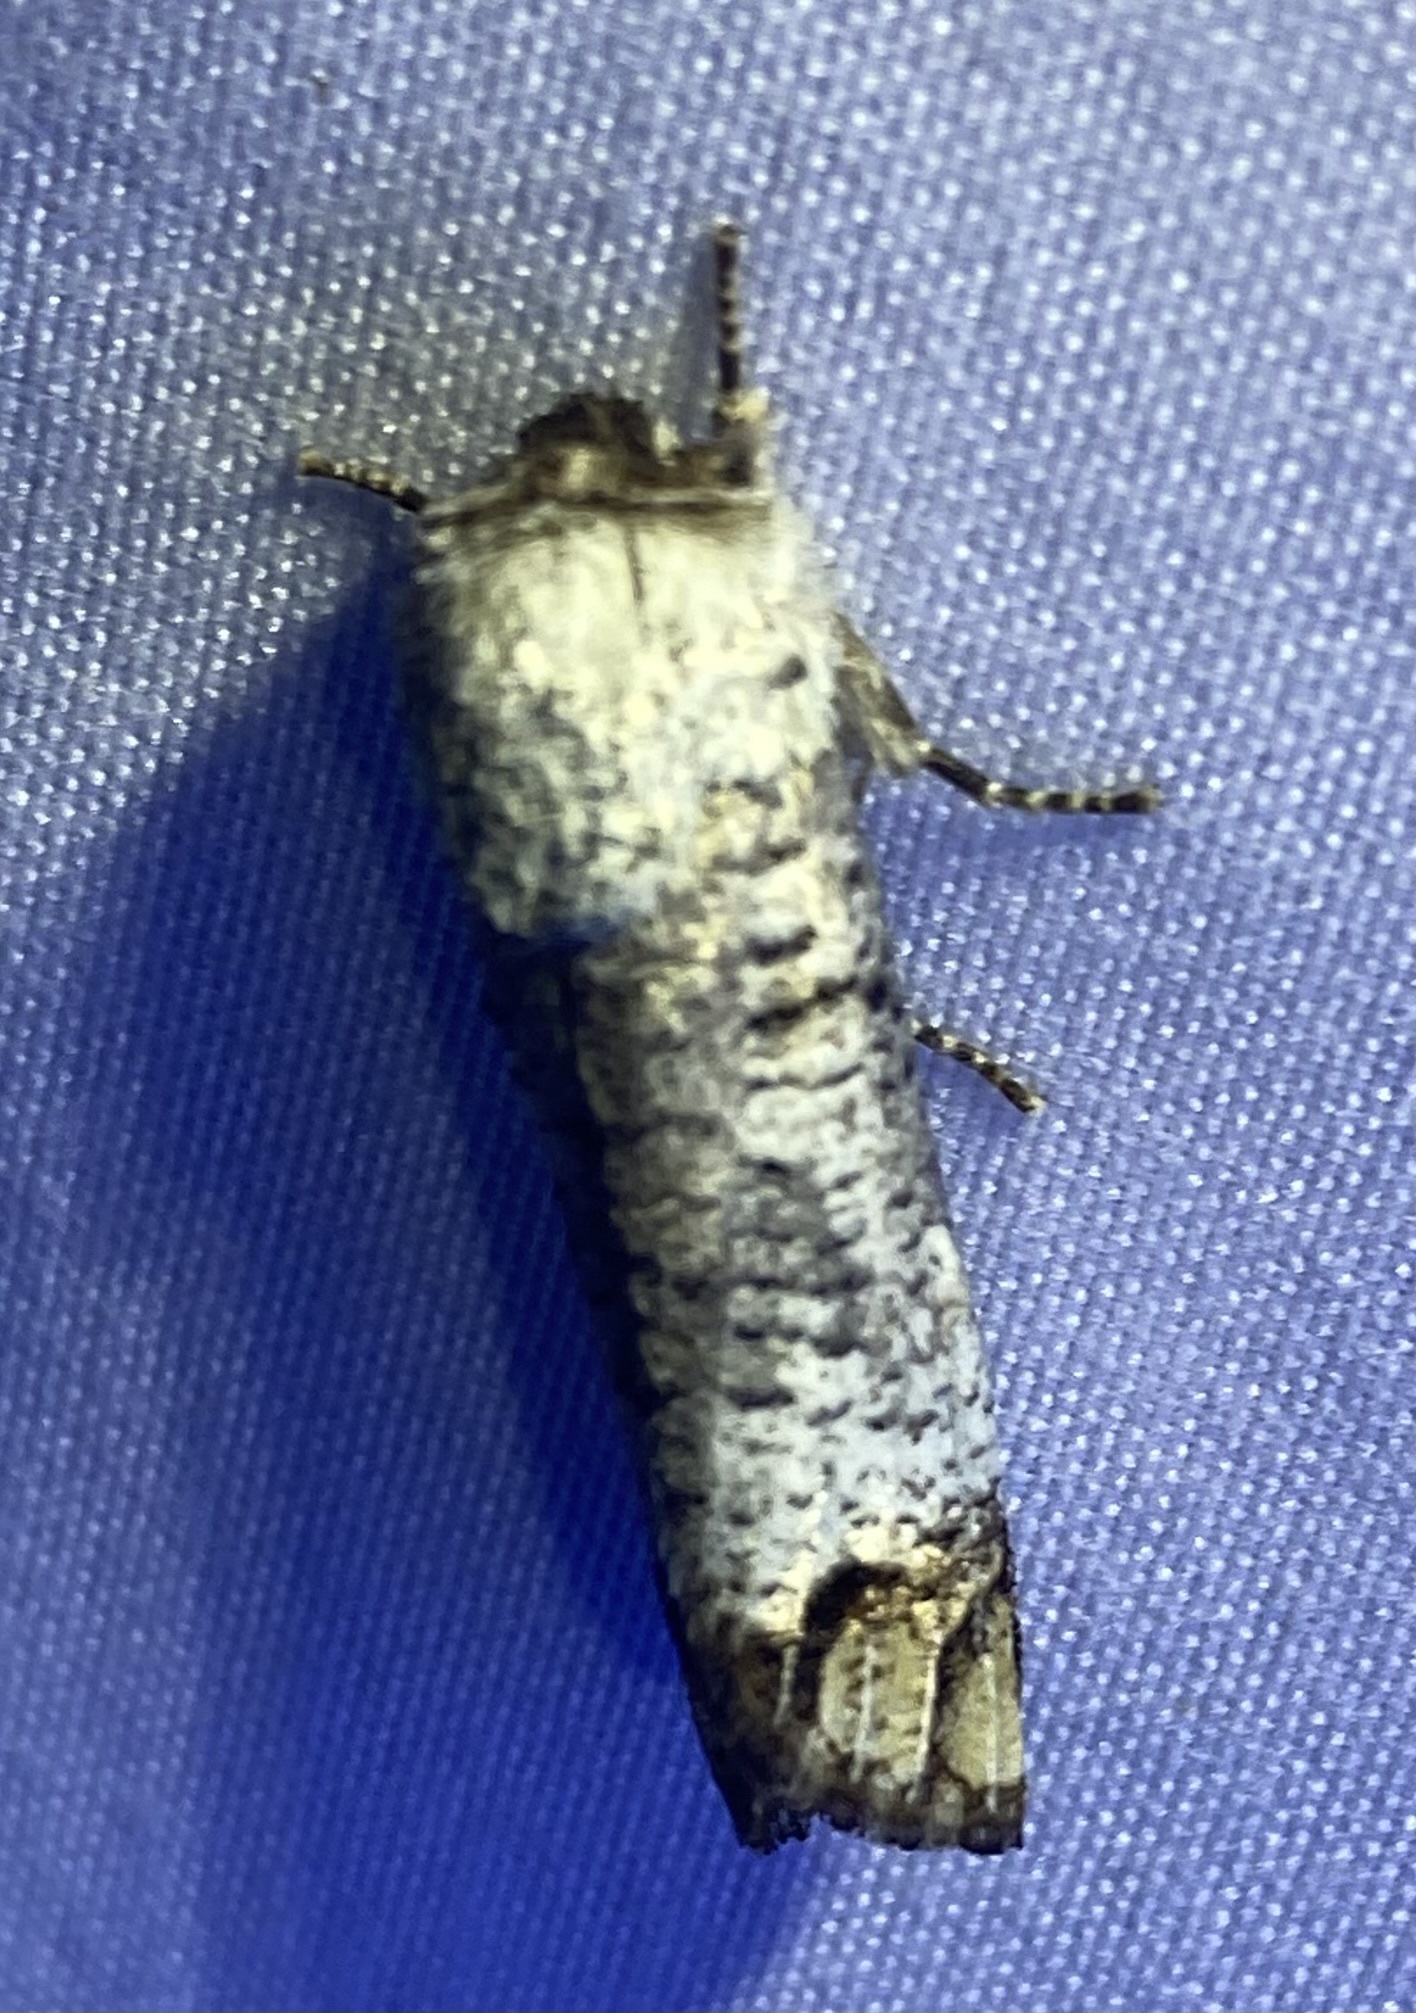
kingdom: Animalia
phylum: Arthropoda
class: Insecta
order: Lepidoptera
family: Cossidae
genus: Cossula
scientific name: Cossula magnifica
